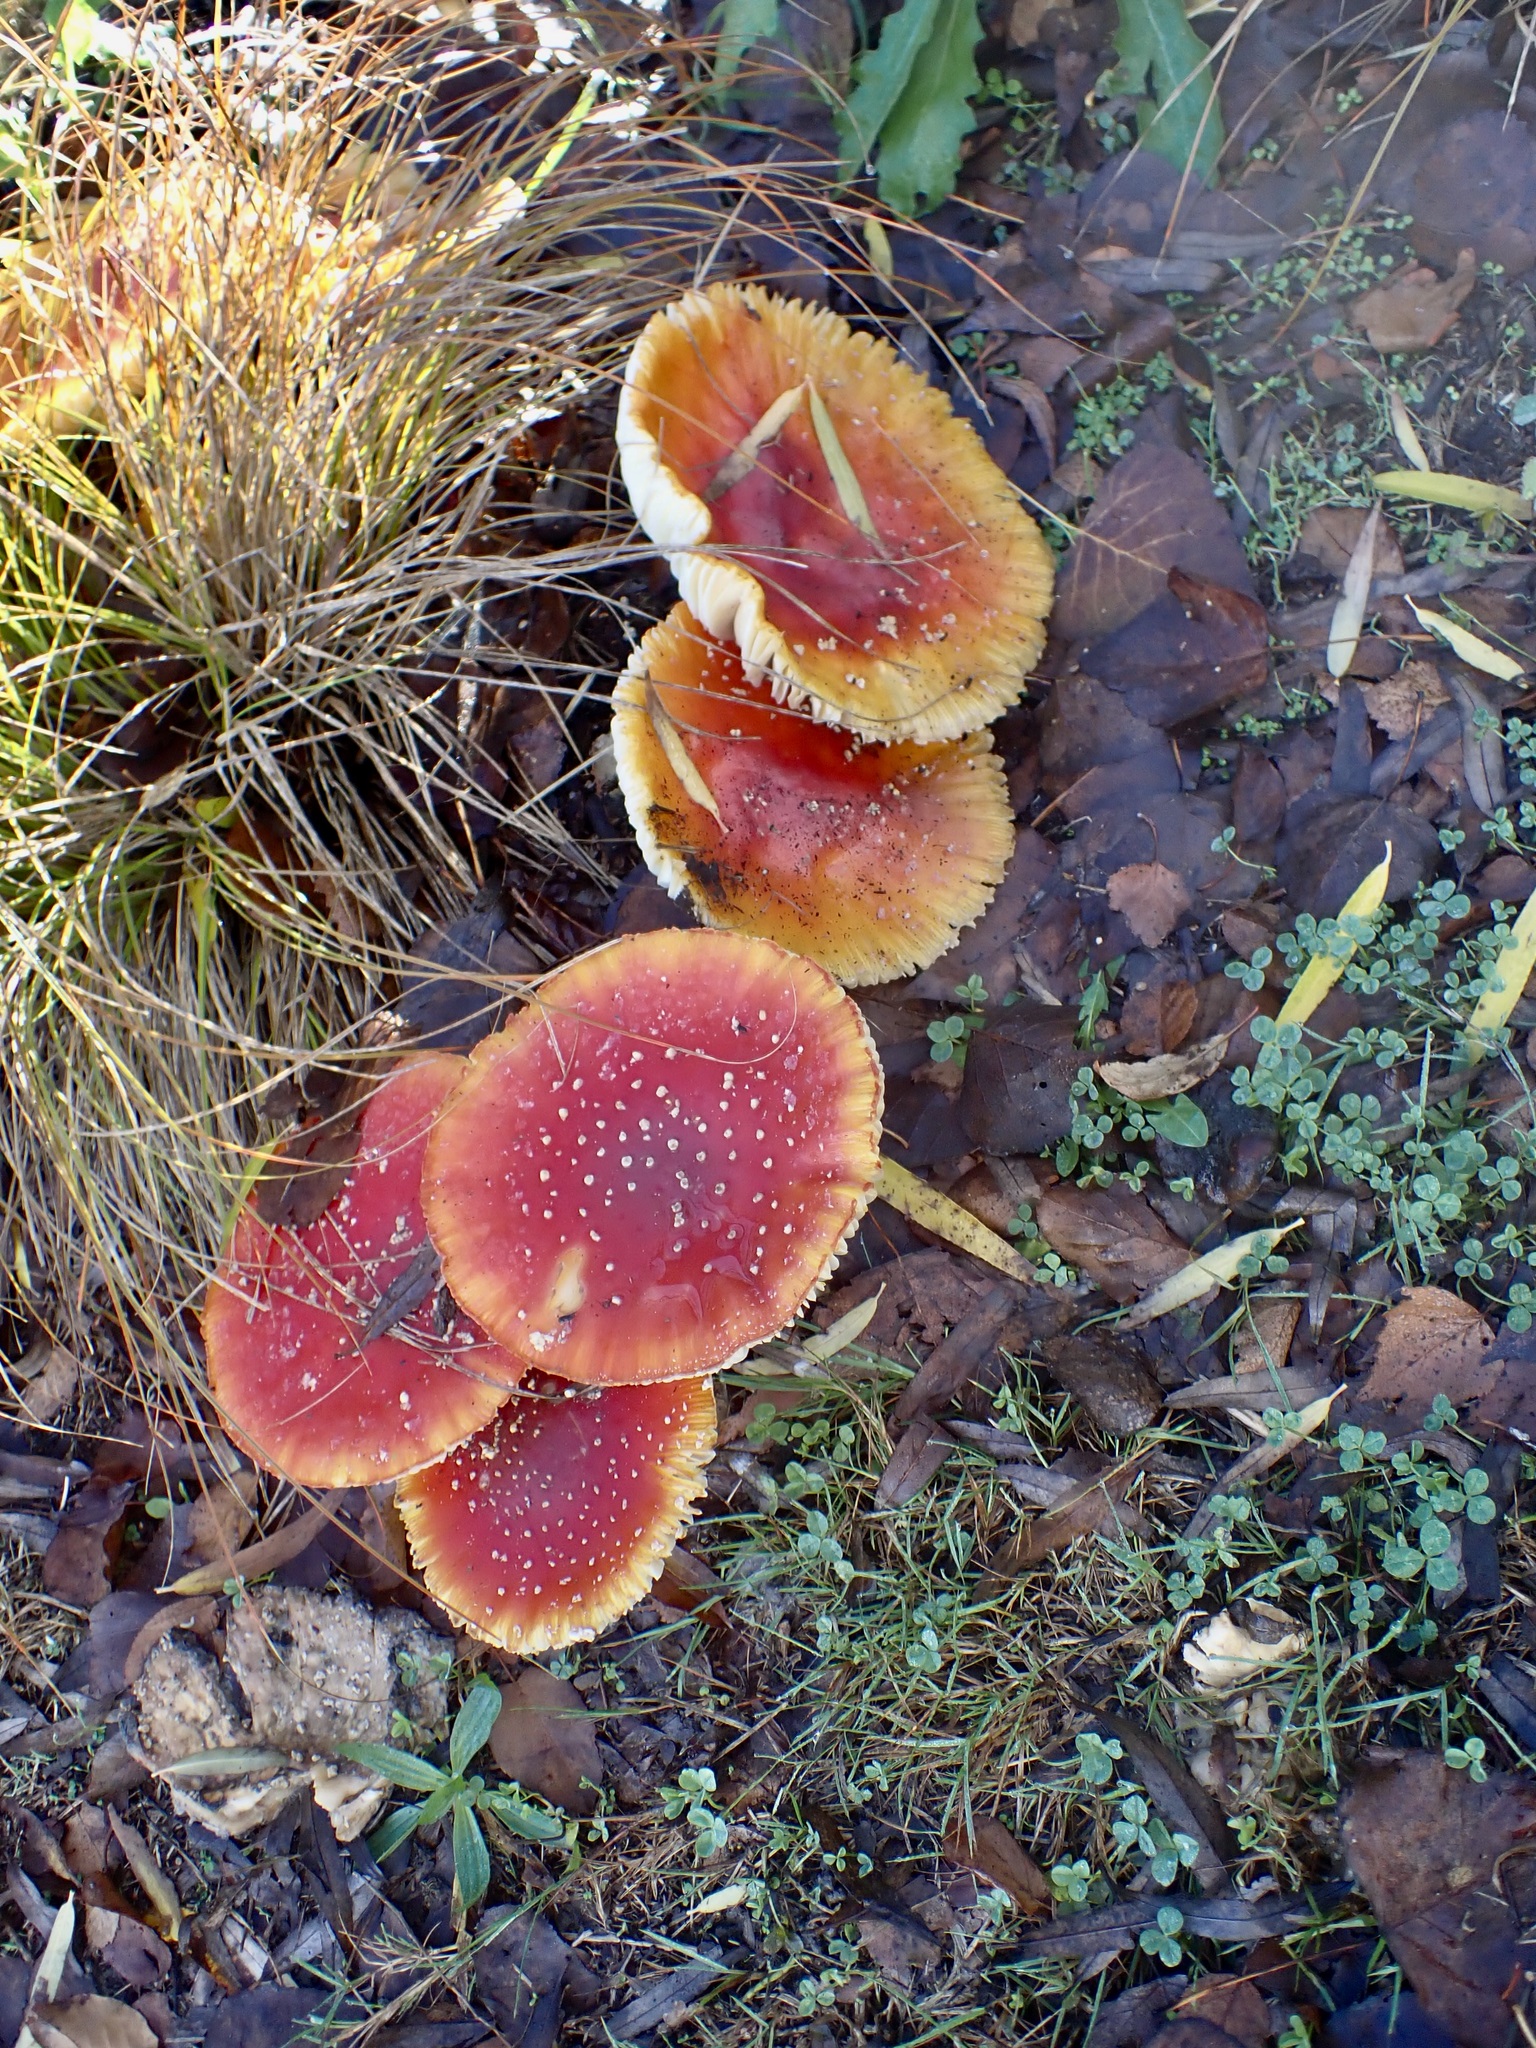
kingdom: Fungi
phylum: Basidiomycota
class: Agaricomycetes
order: Agaricales
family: Amanitaceae
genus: Amanita
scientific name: Amanita muscaria
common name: Fly agaric
